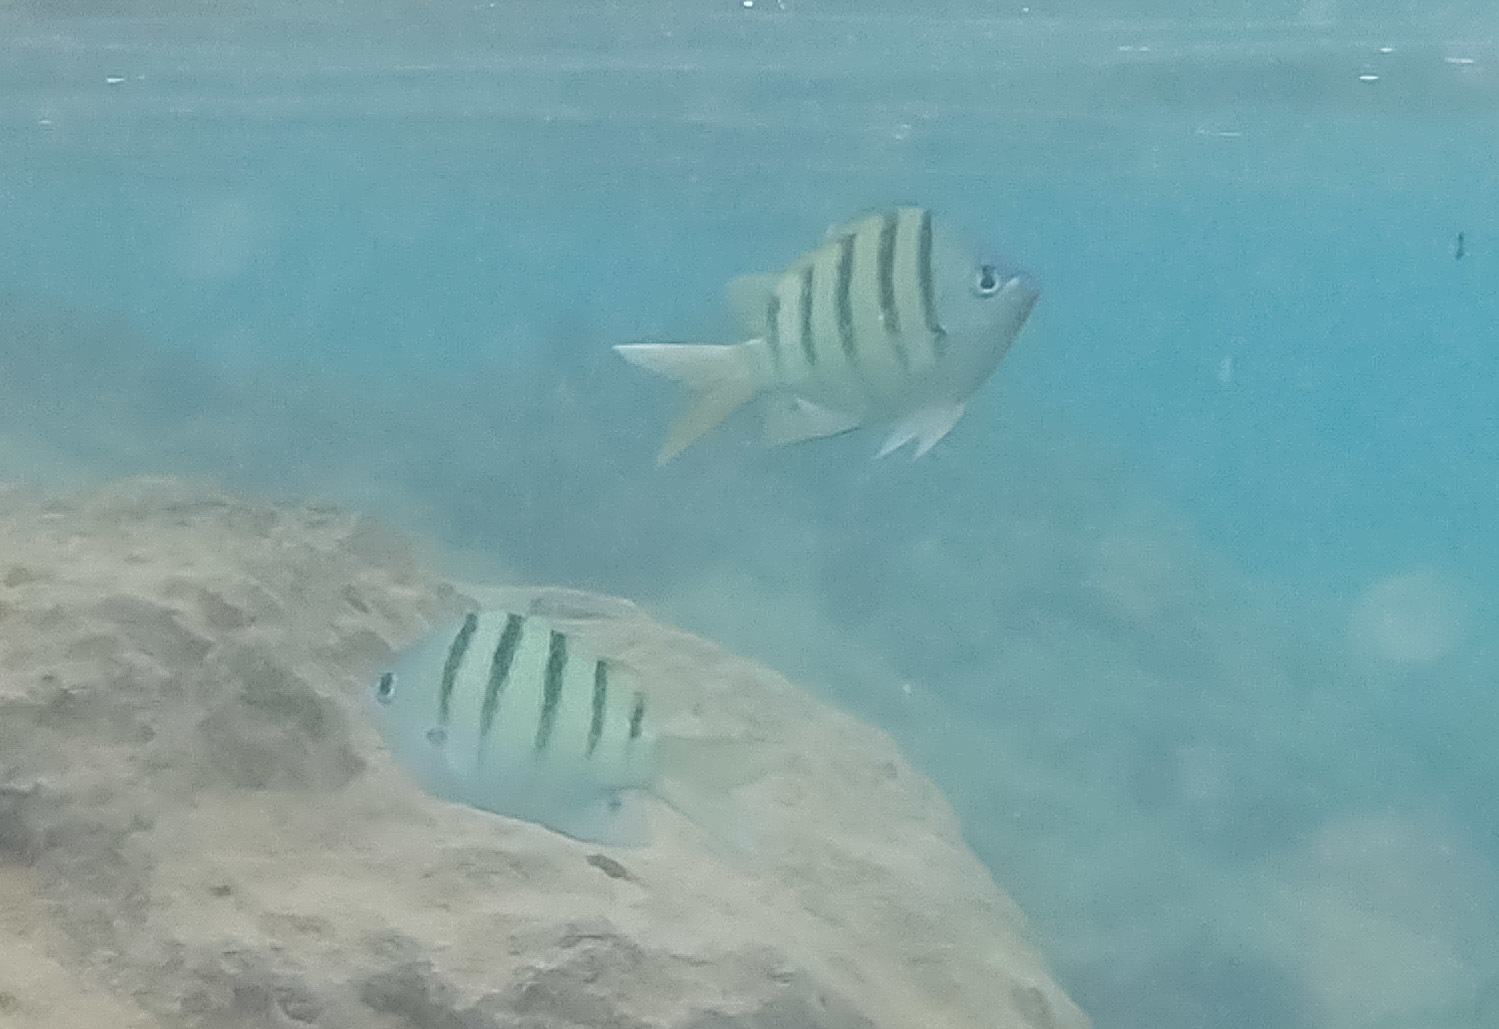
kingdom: Animalia
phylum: Chordata
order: Perciformes
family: Pomacentridae
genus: Abudefduf
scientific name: Abudefduf abdominalis
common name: Green damselfish
